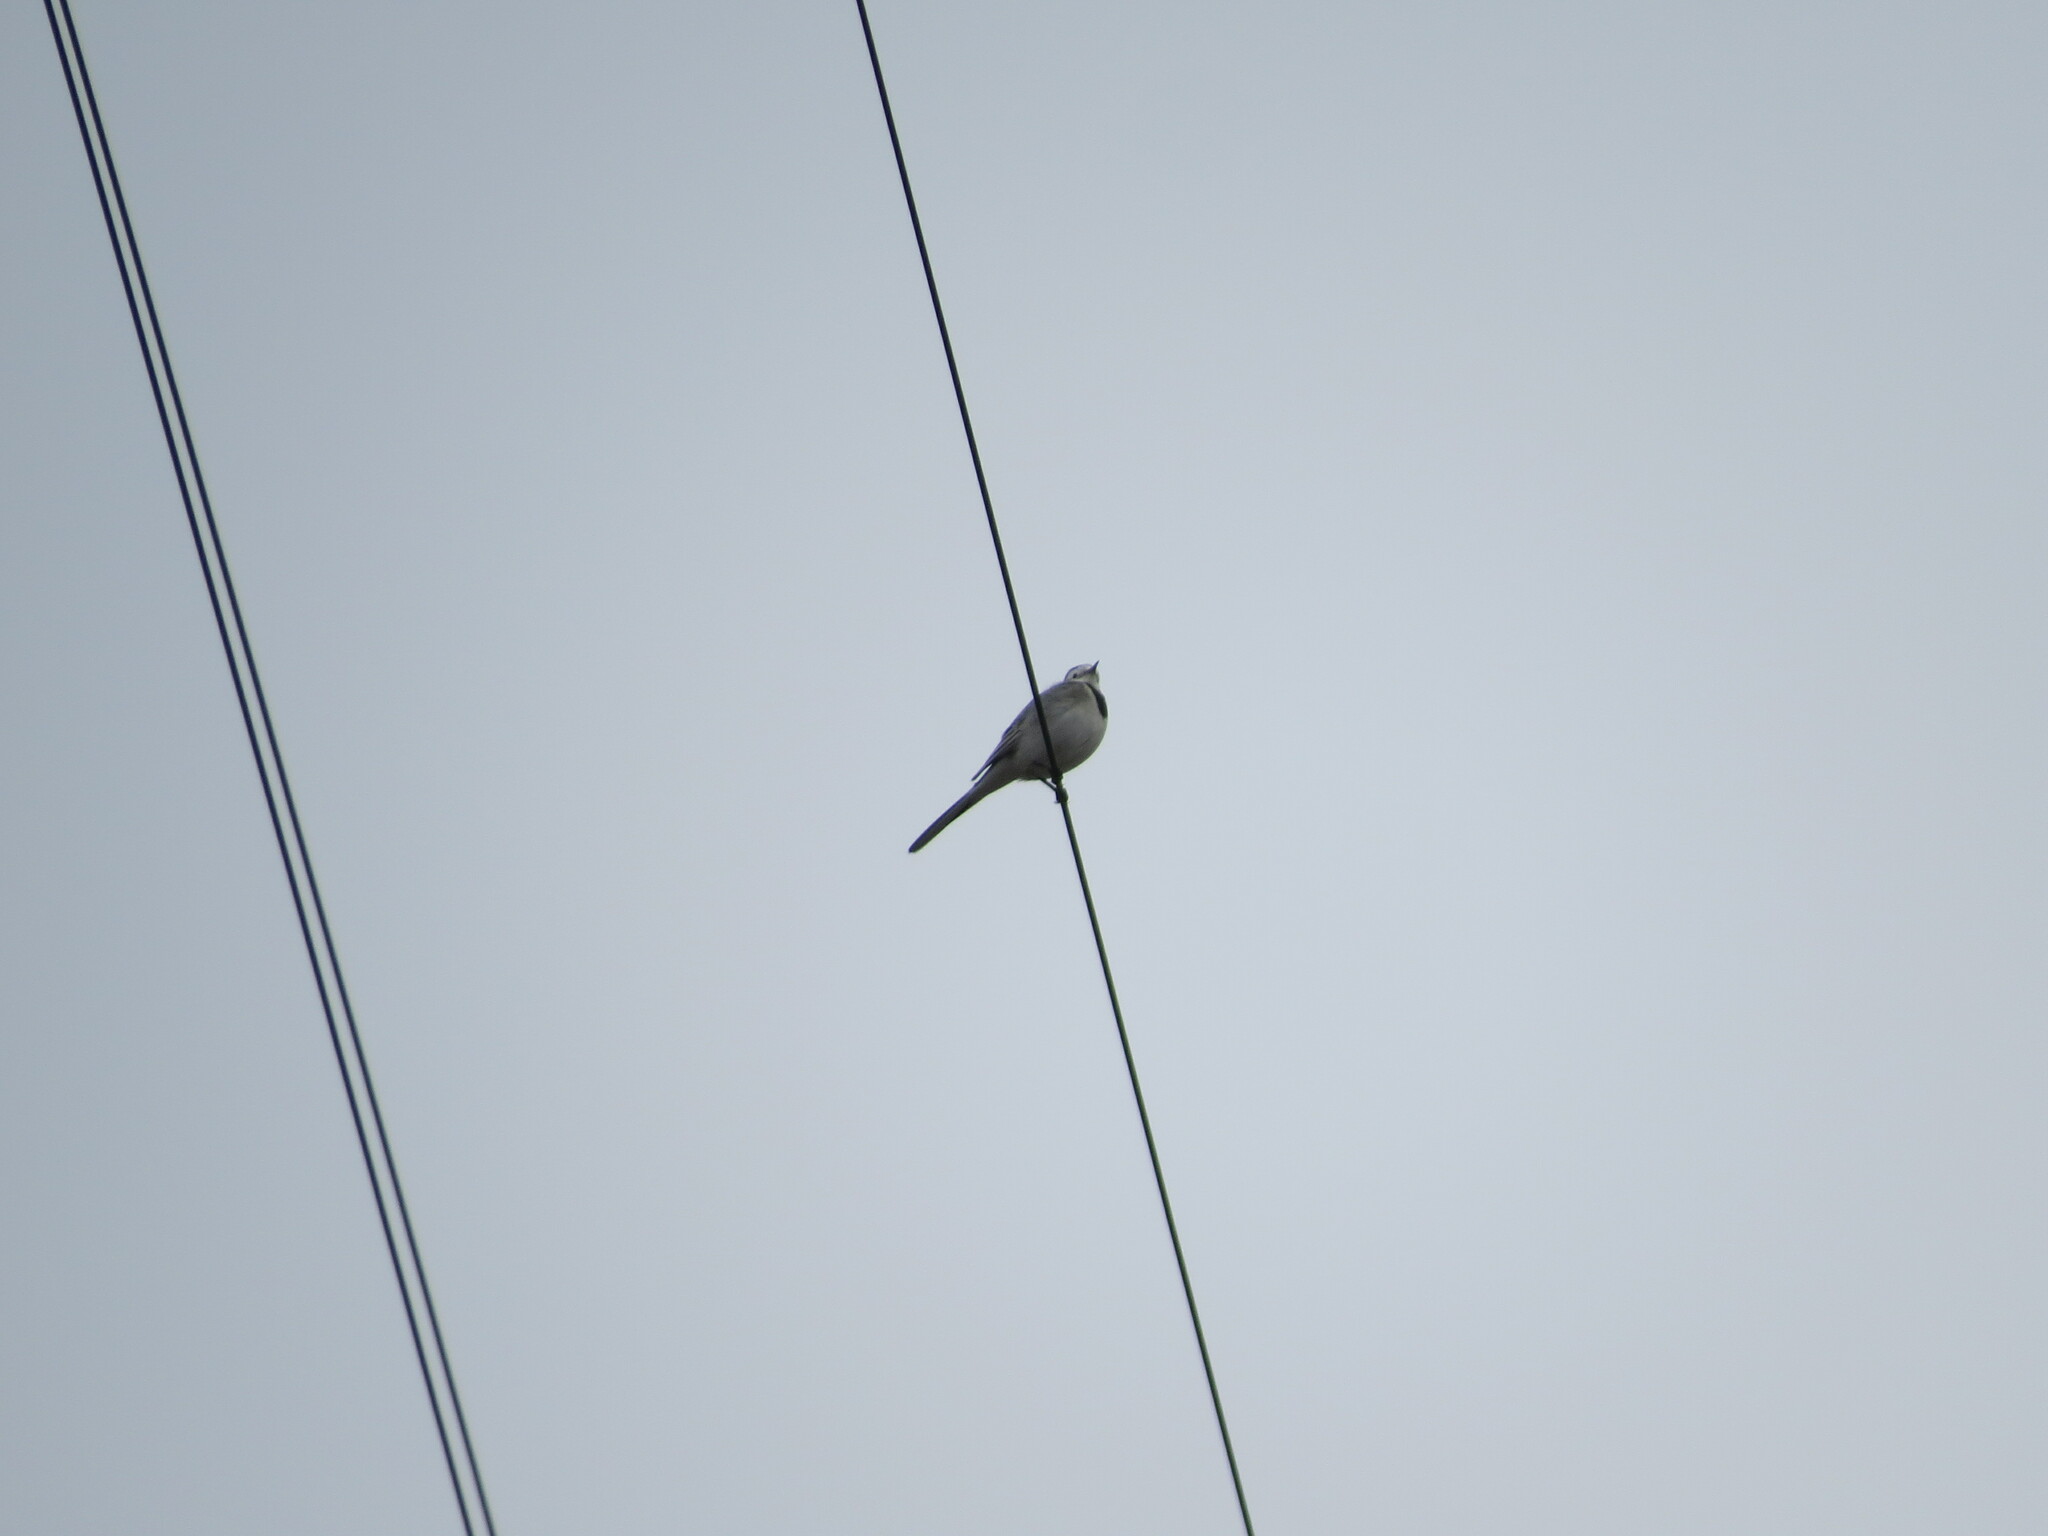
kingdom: Animalia
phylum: Chordata
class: Aves
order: Passeriformes
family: Motacillidae
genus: Motacilla
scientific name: Motacilla alba
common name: White wagtail
